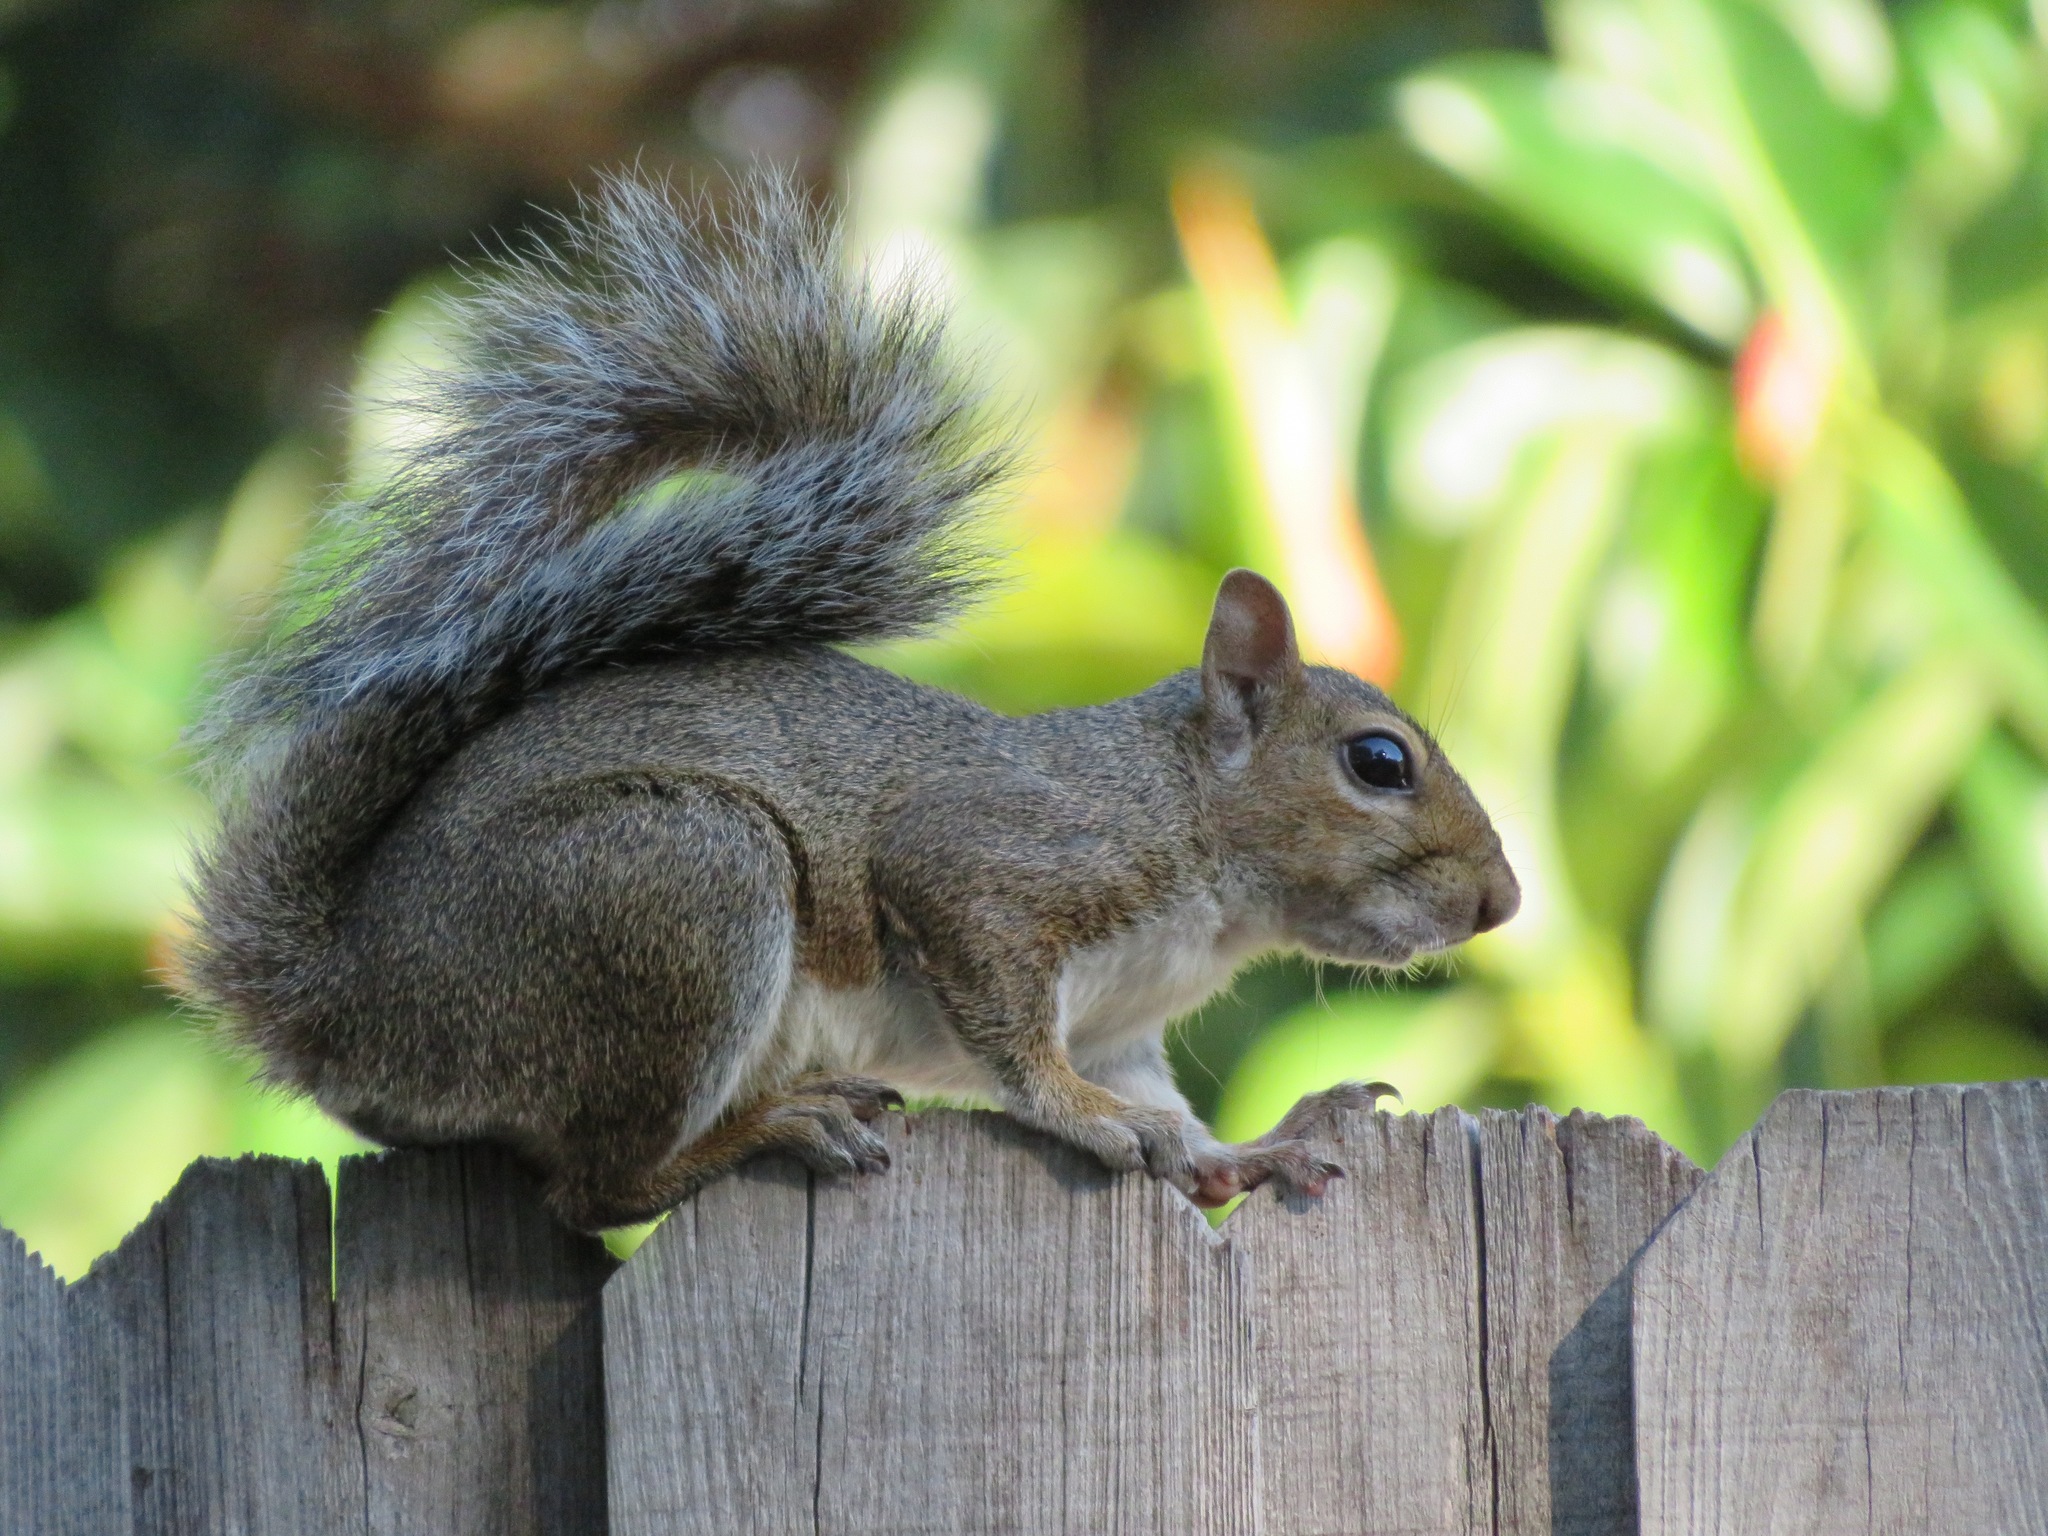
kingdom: Animalia
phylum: Chordata
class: Mammalia
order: Rodentia
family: Sciuridae
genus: Sciurus
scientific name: Sciurus carolinensis
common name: Eastern gray squirrel
